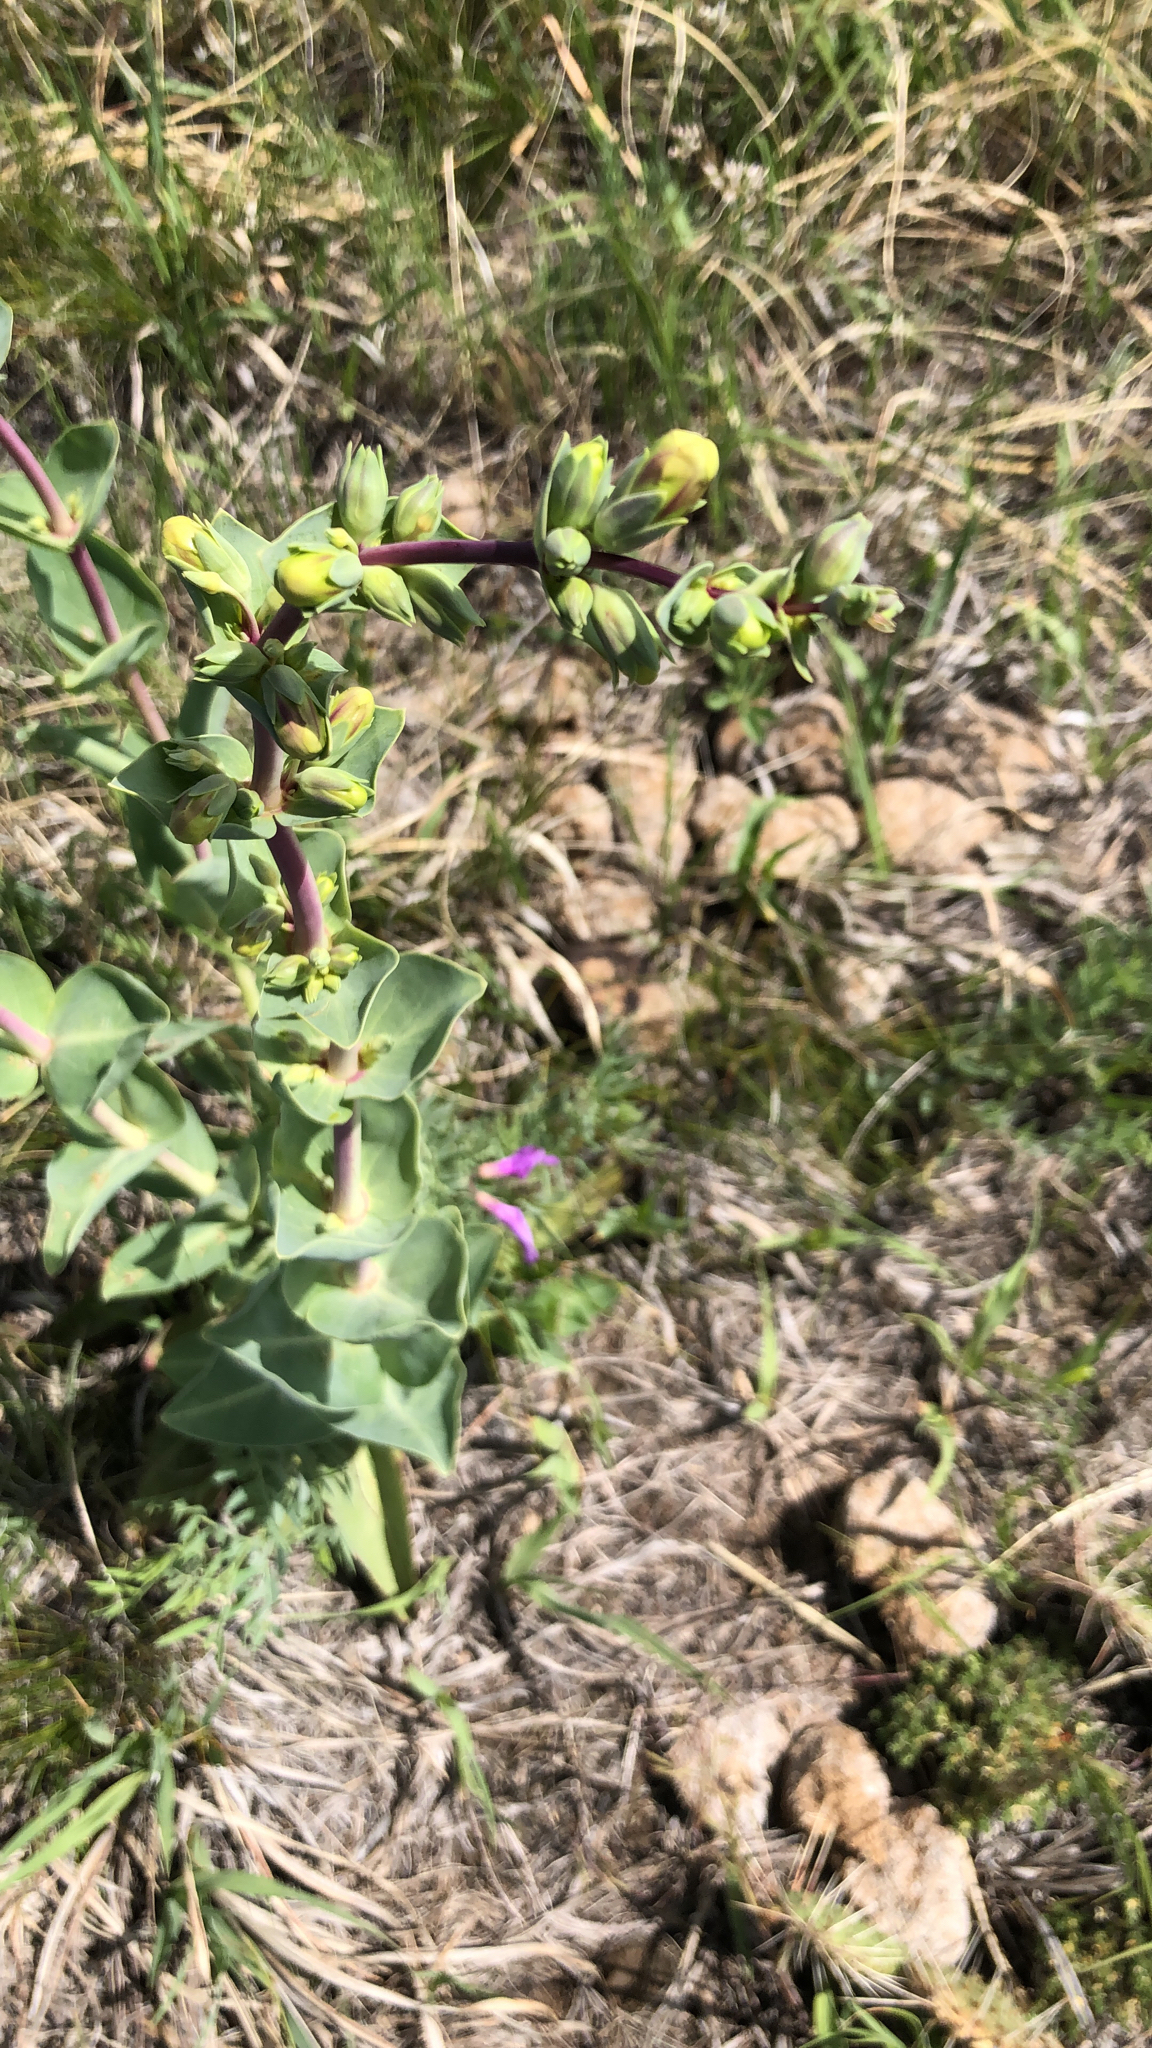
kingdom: Plantae
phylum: Tracheophyta
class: Magnoliopsida
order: Lamiales
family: Plantaginaceae
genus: Penstemon
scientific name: Penstemon
